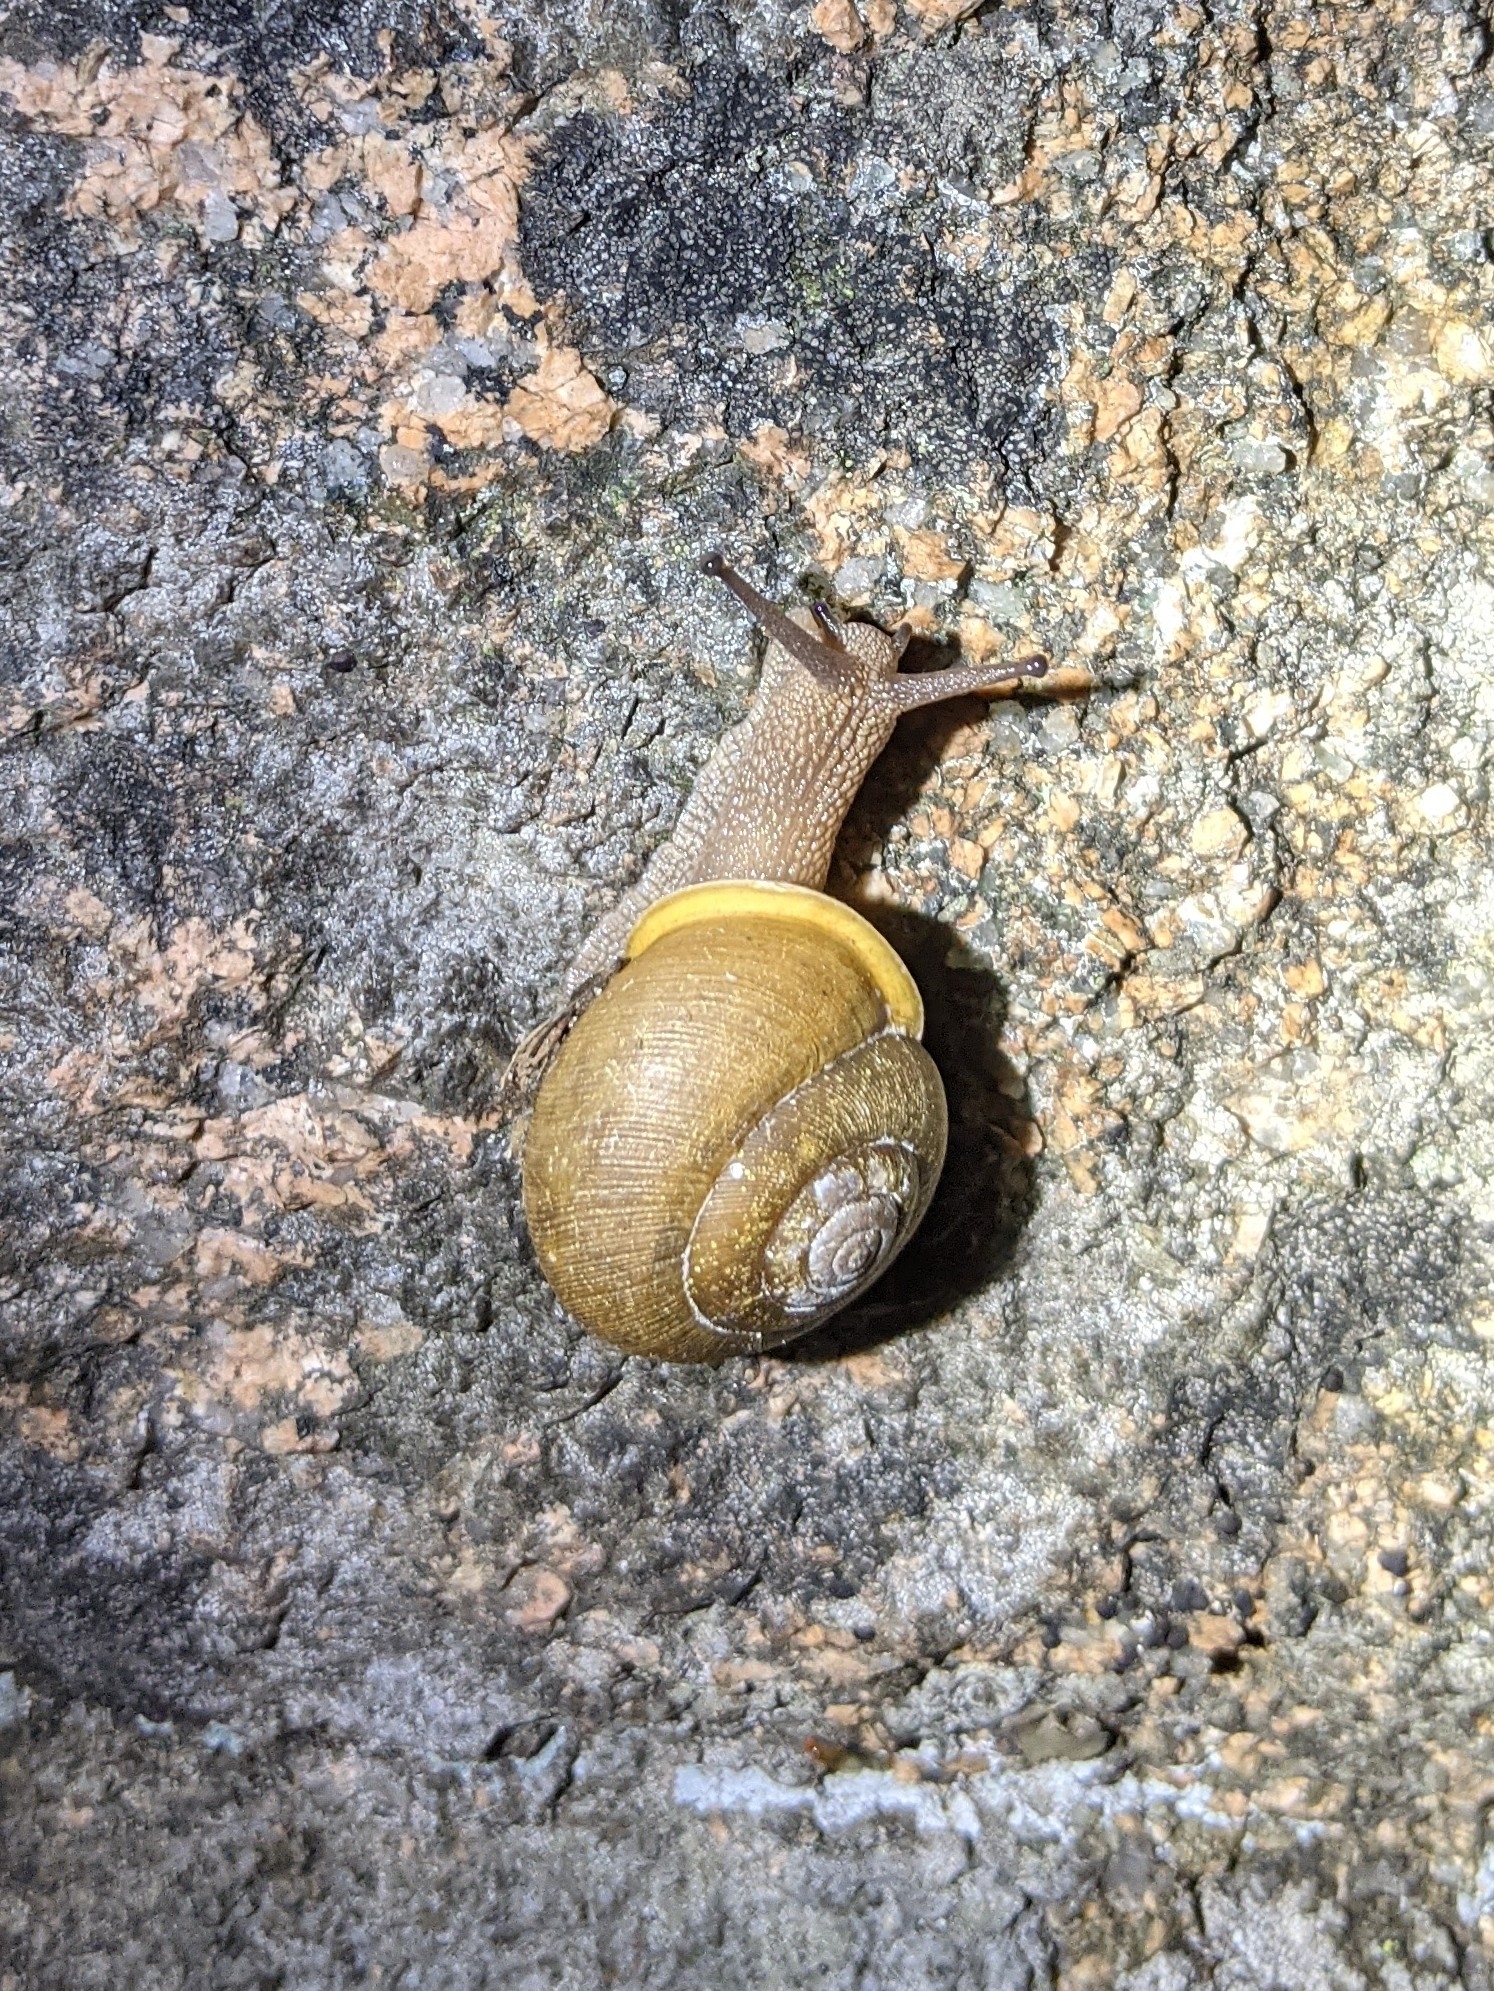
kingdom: Animalia
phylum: Mollusca
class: Gastropoda
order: Stylommatophora
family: Polygyridae
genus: Neohelix
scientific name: Neohelix albolabris
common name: Eastern whitelip
